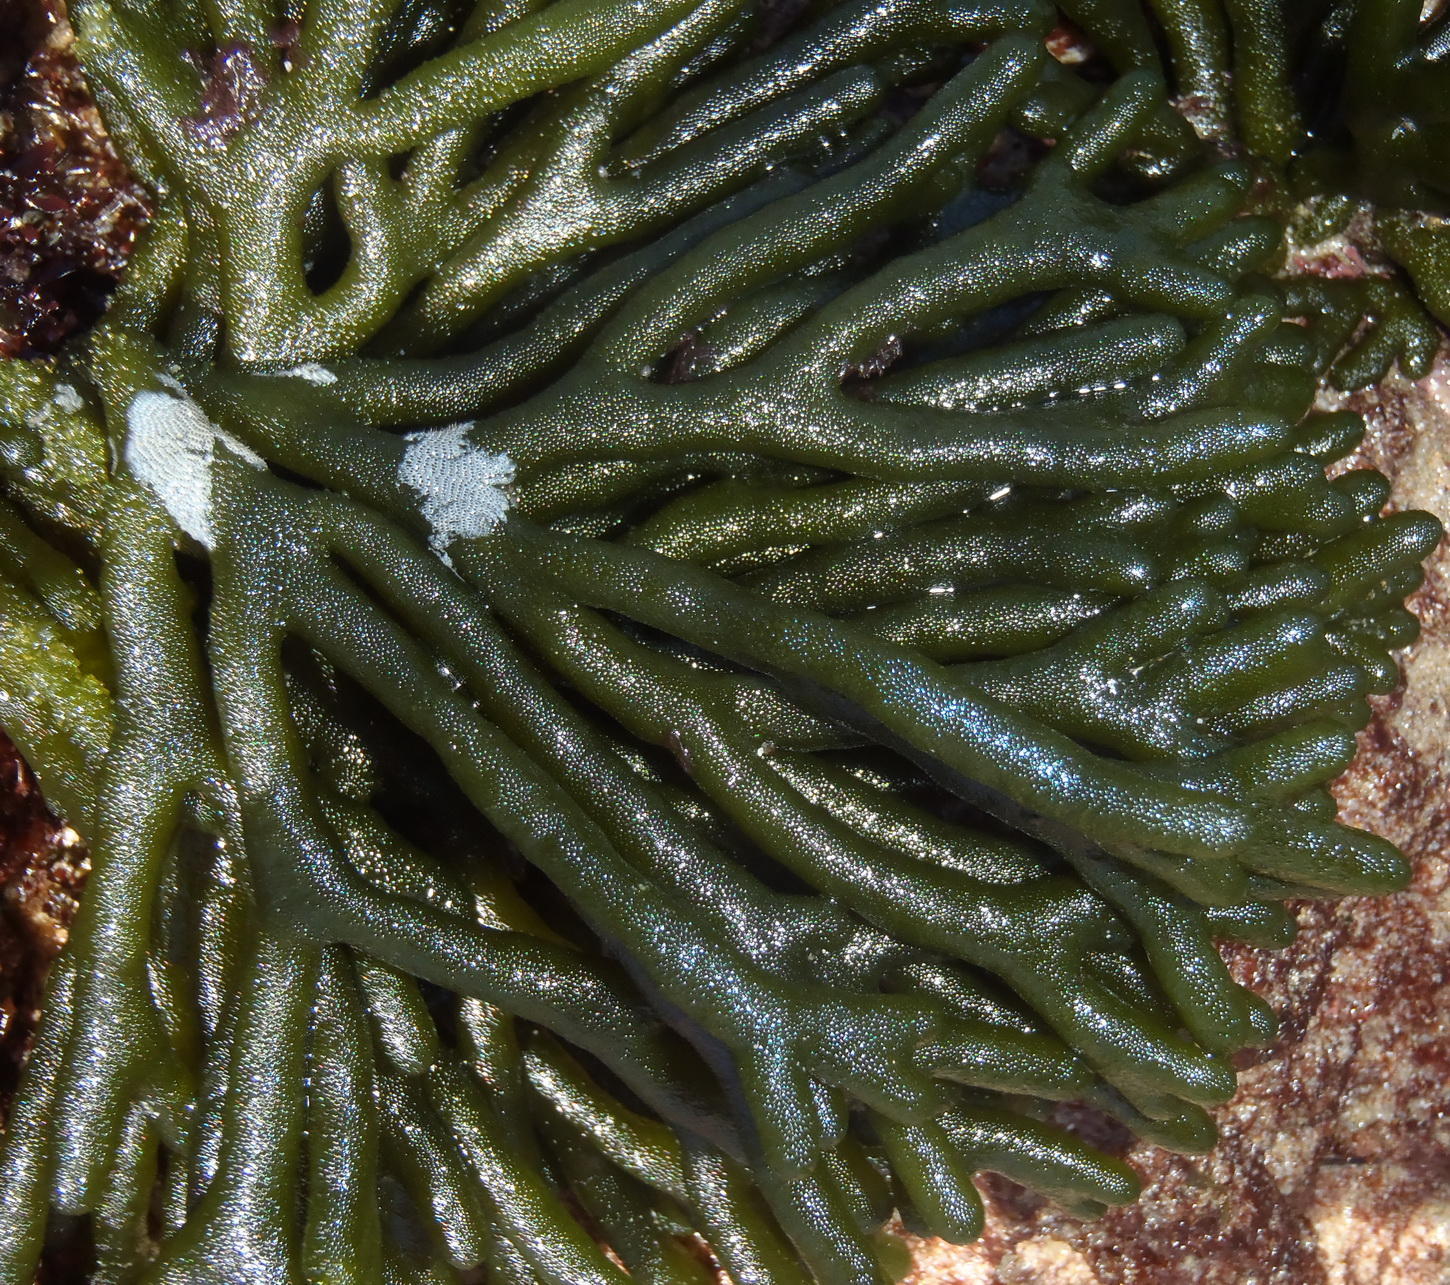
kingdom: Plantae
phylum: Chlorophyta
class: Ulvophyceae
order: Bryopsidales
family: Codiaceae
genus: Codium
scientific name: Codium fragile
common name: Dead man's fingers
